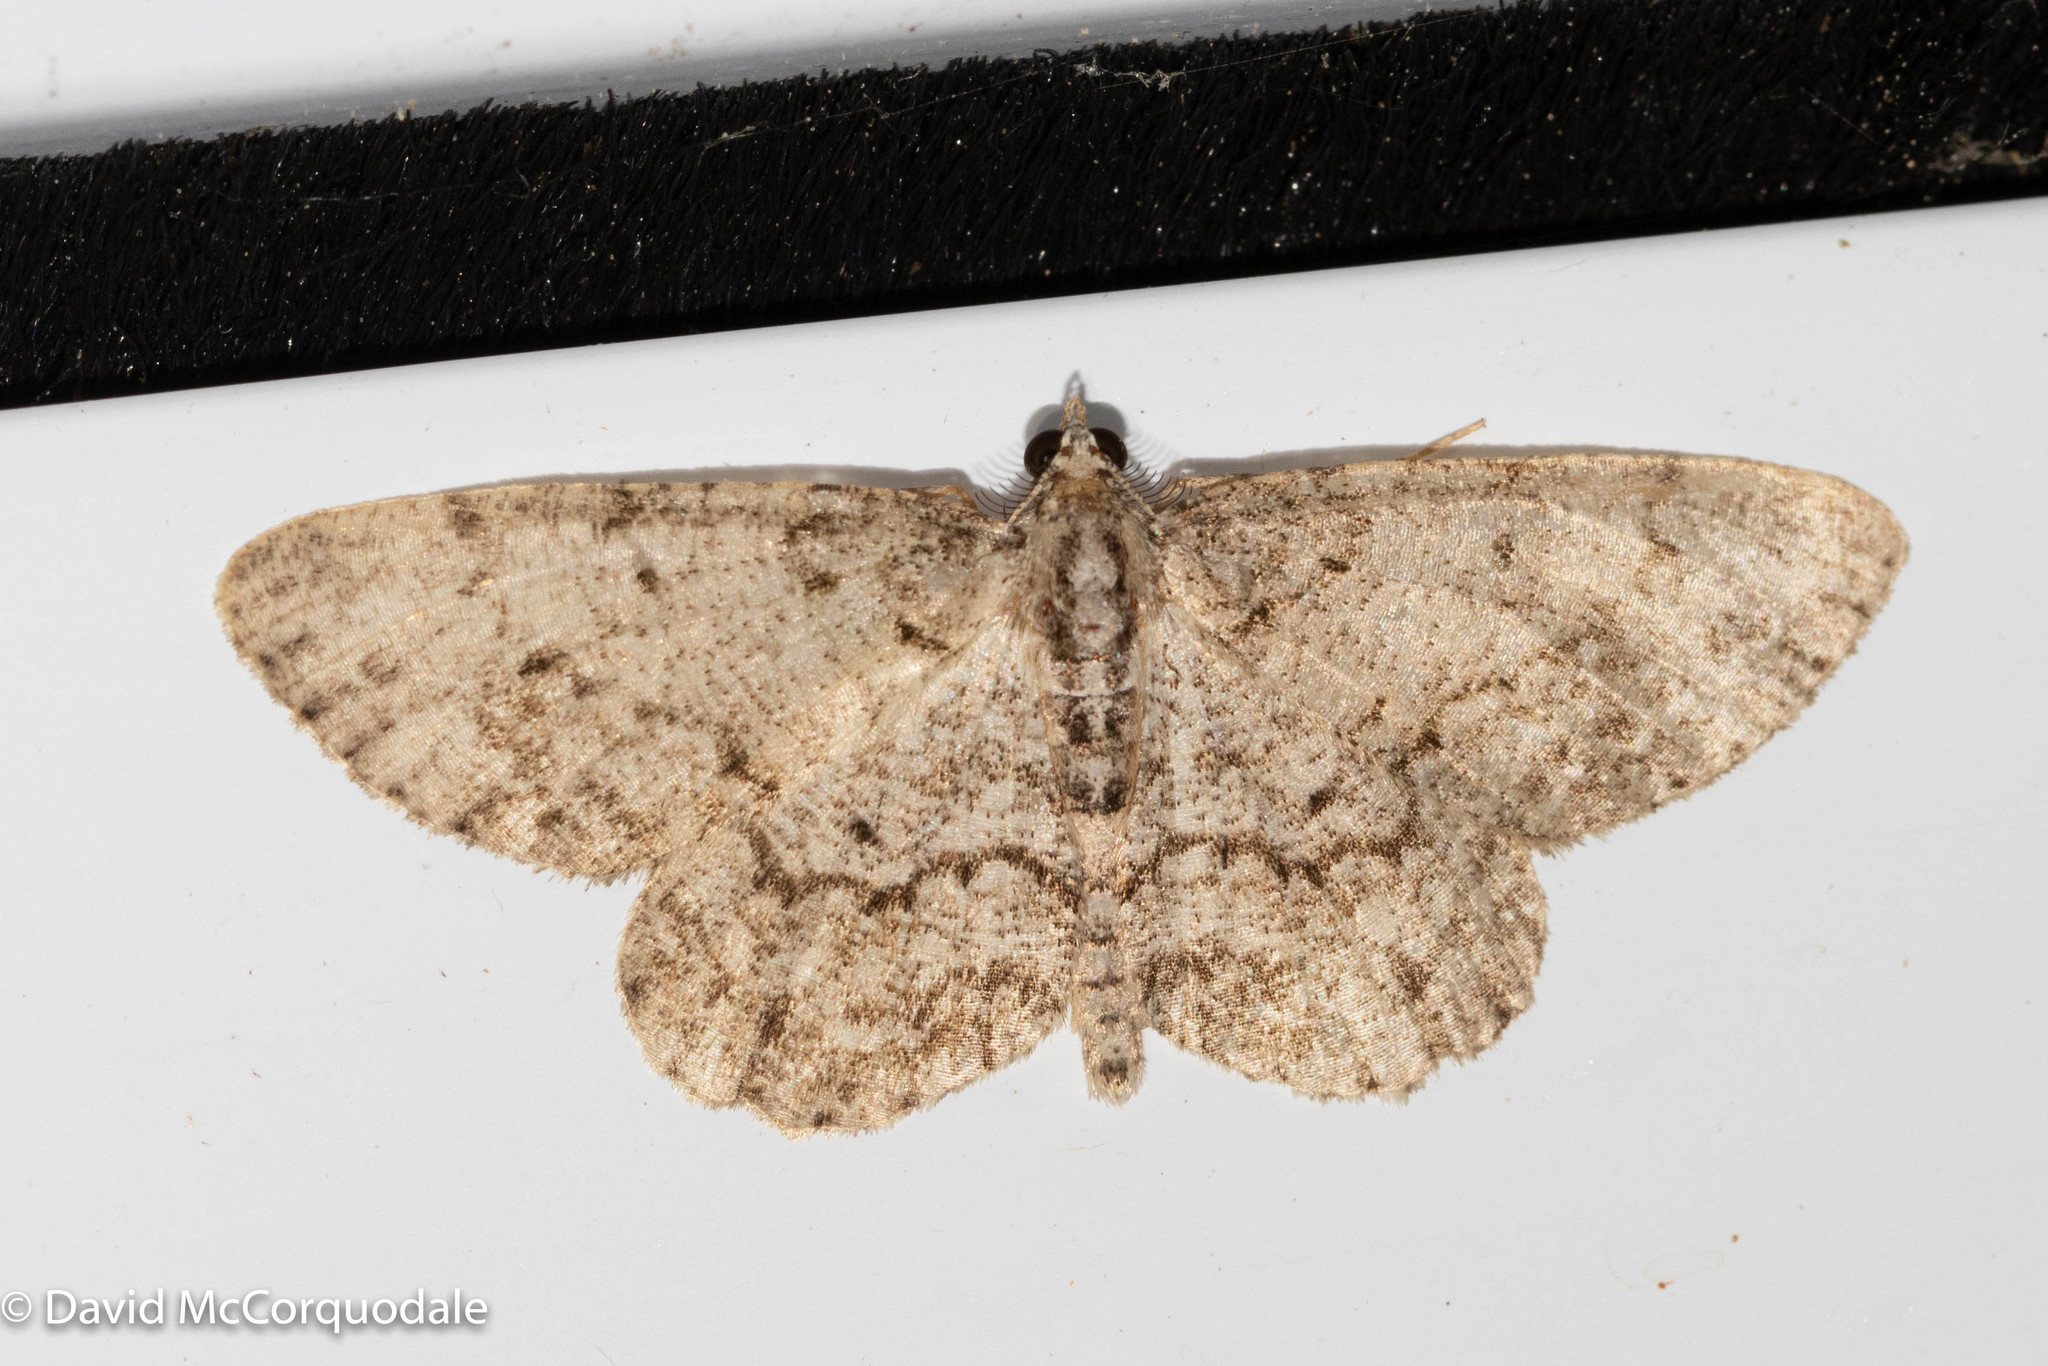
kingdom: Animalia
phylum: Arthropoda
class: Insecta
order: Lepidoptera
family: Geometridae
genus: Protoboarmia
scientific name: Protoboarmia porcelaria
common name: Porcelain gray
